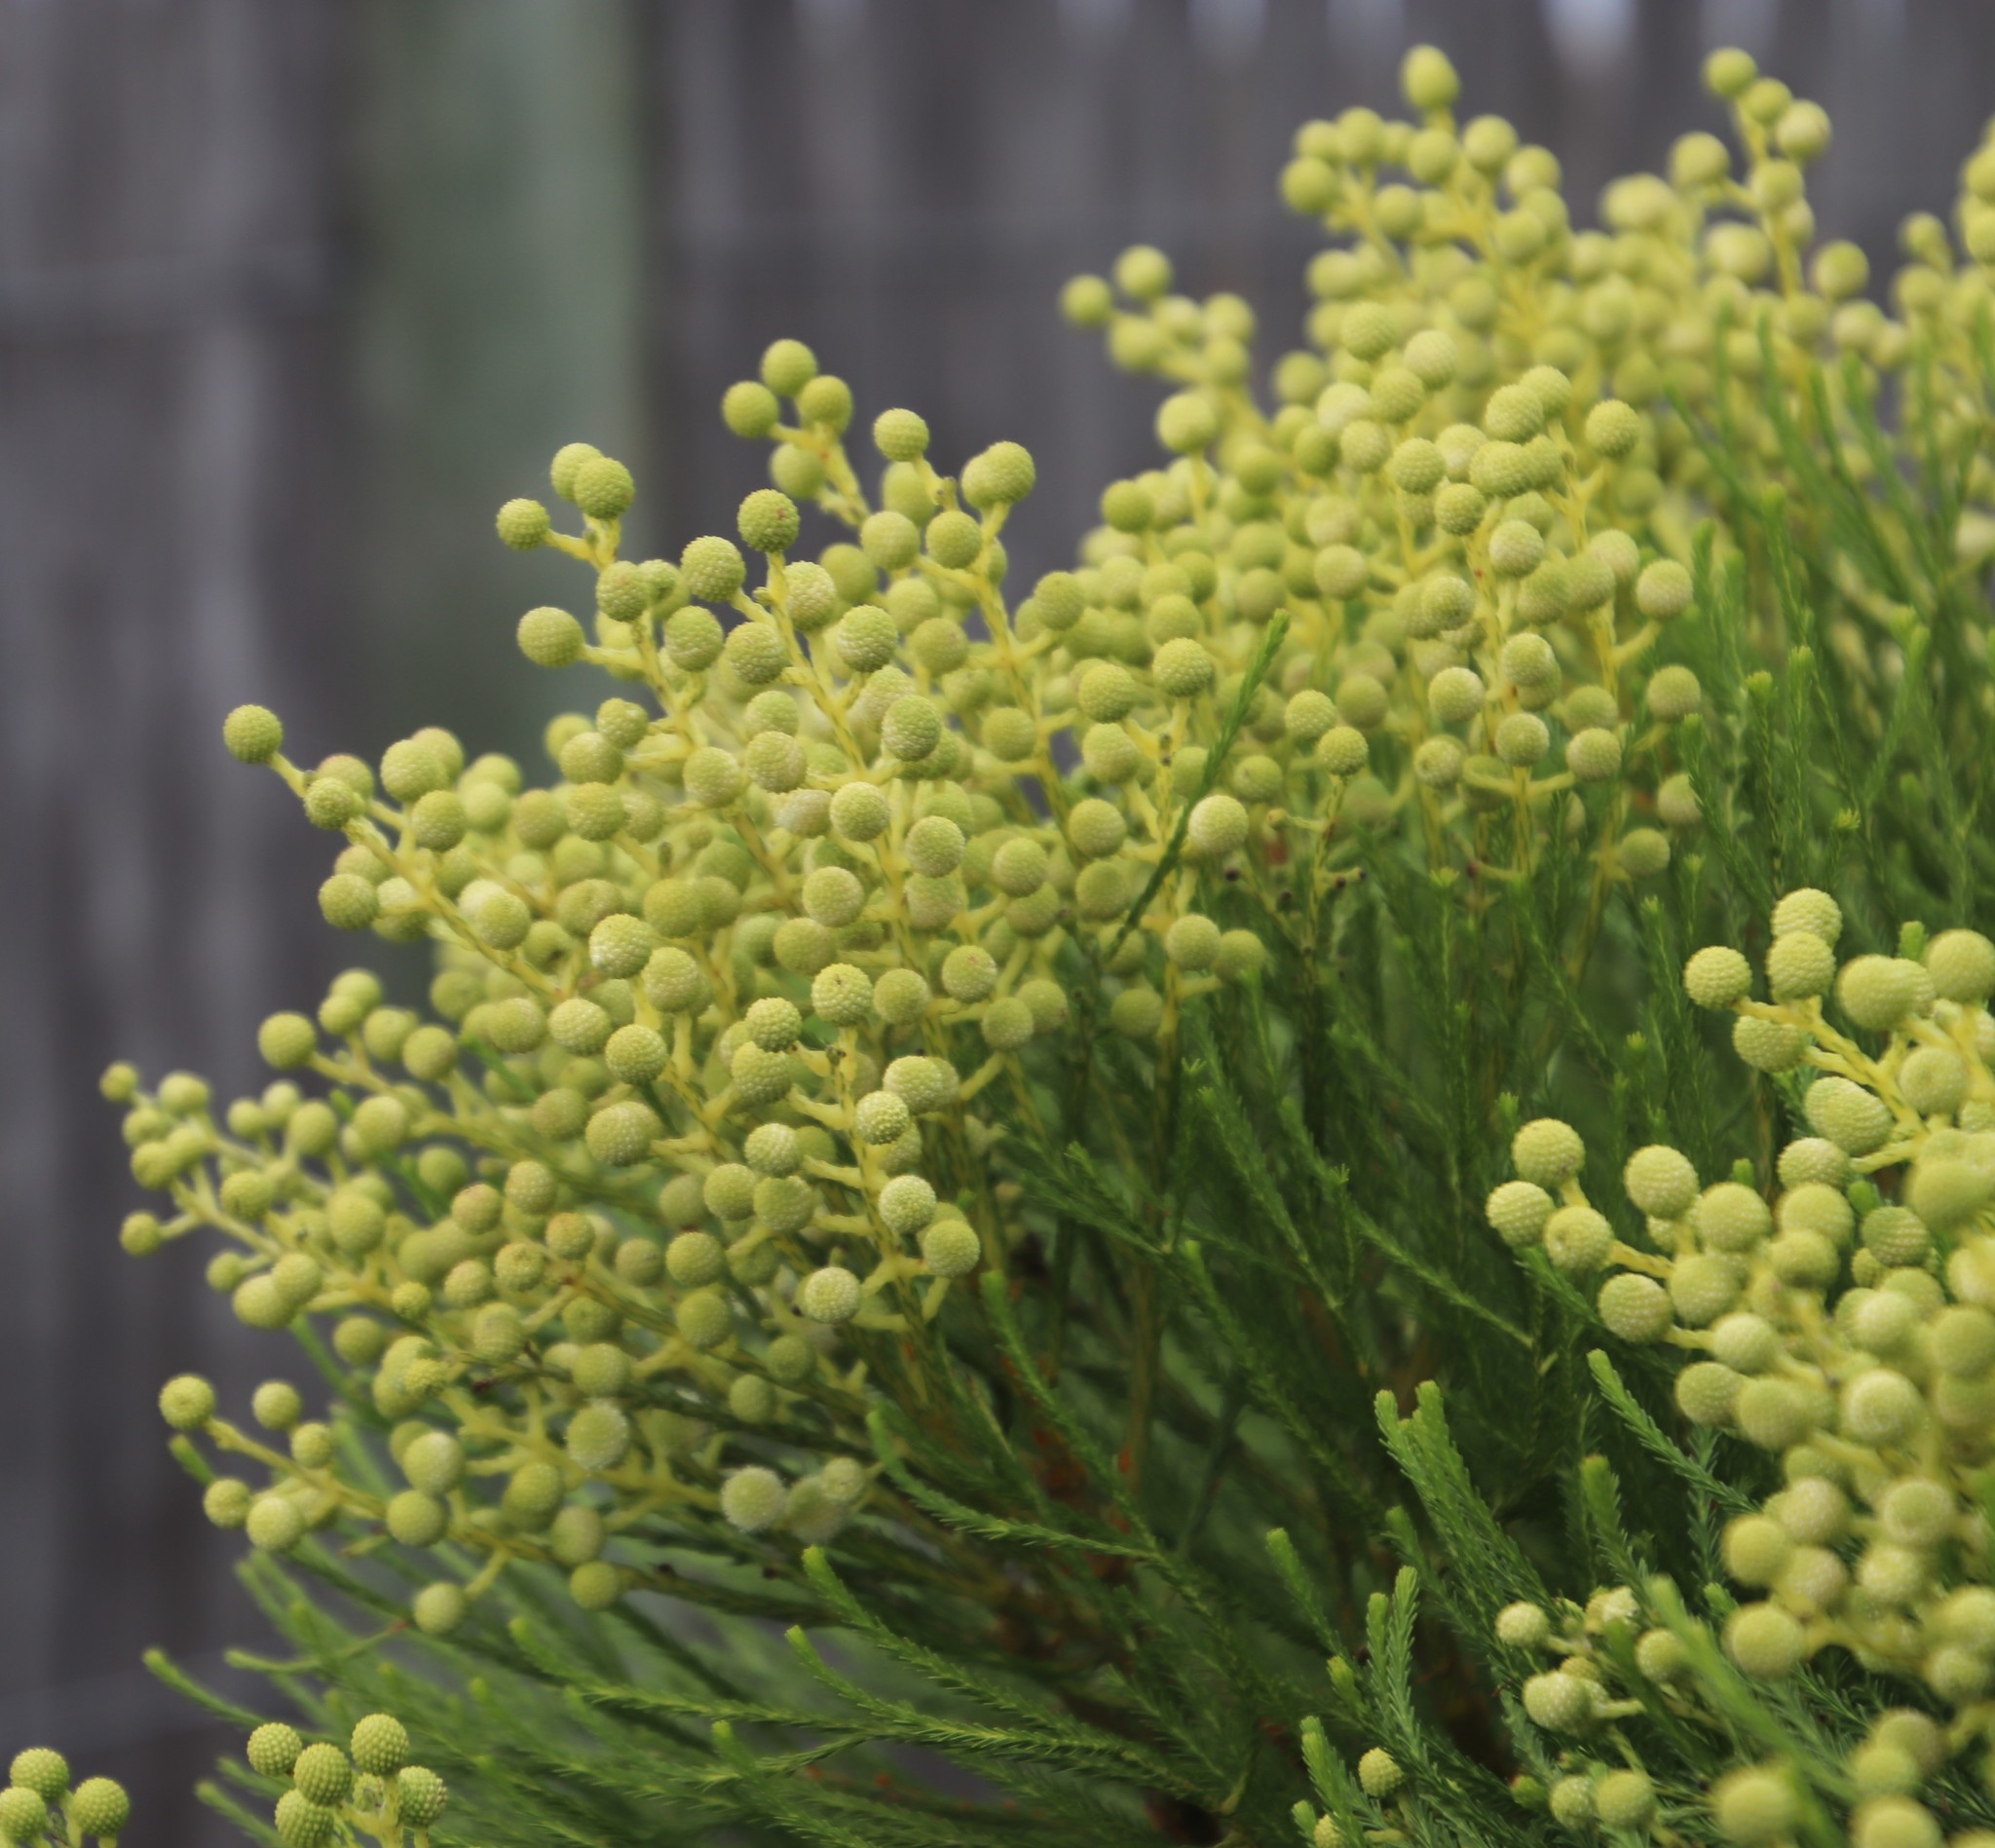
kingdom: Plantae
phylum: Tracheophyta
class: Magnoliopsida
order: Bruniales
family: Bruniaceae
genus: Berzelia
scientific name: Berzelia lanuginosa
